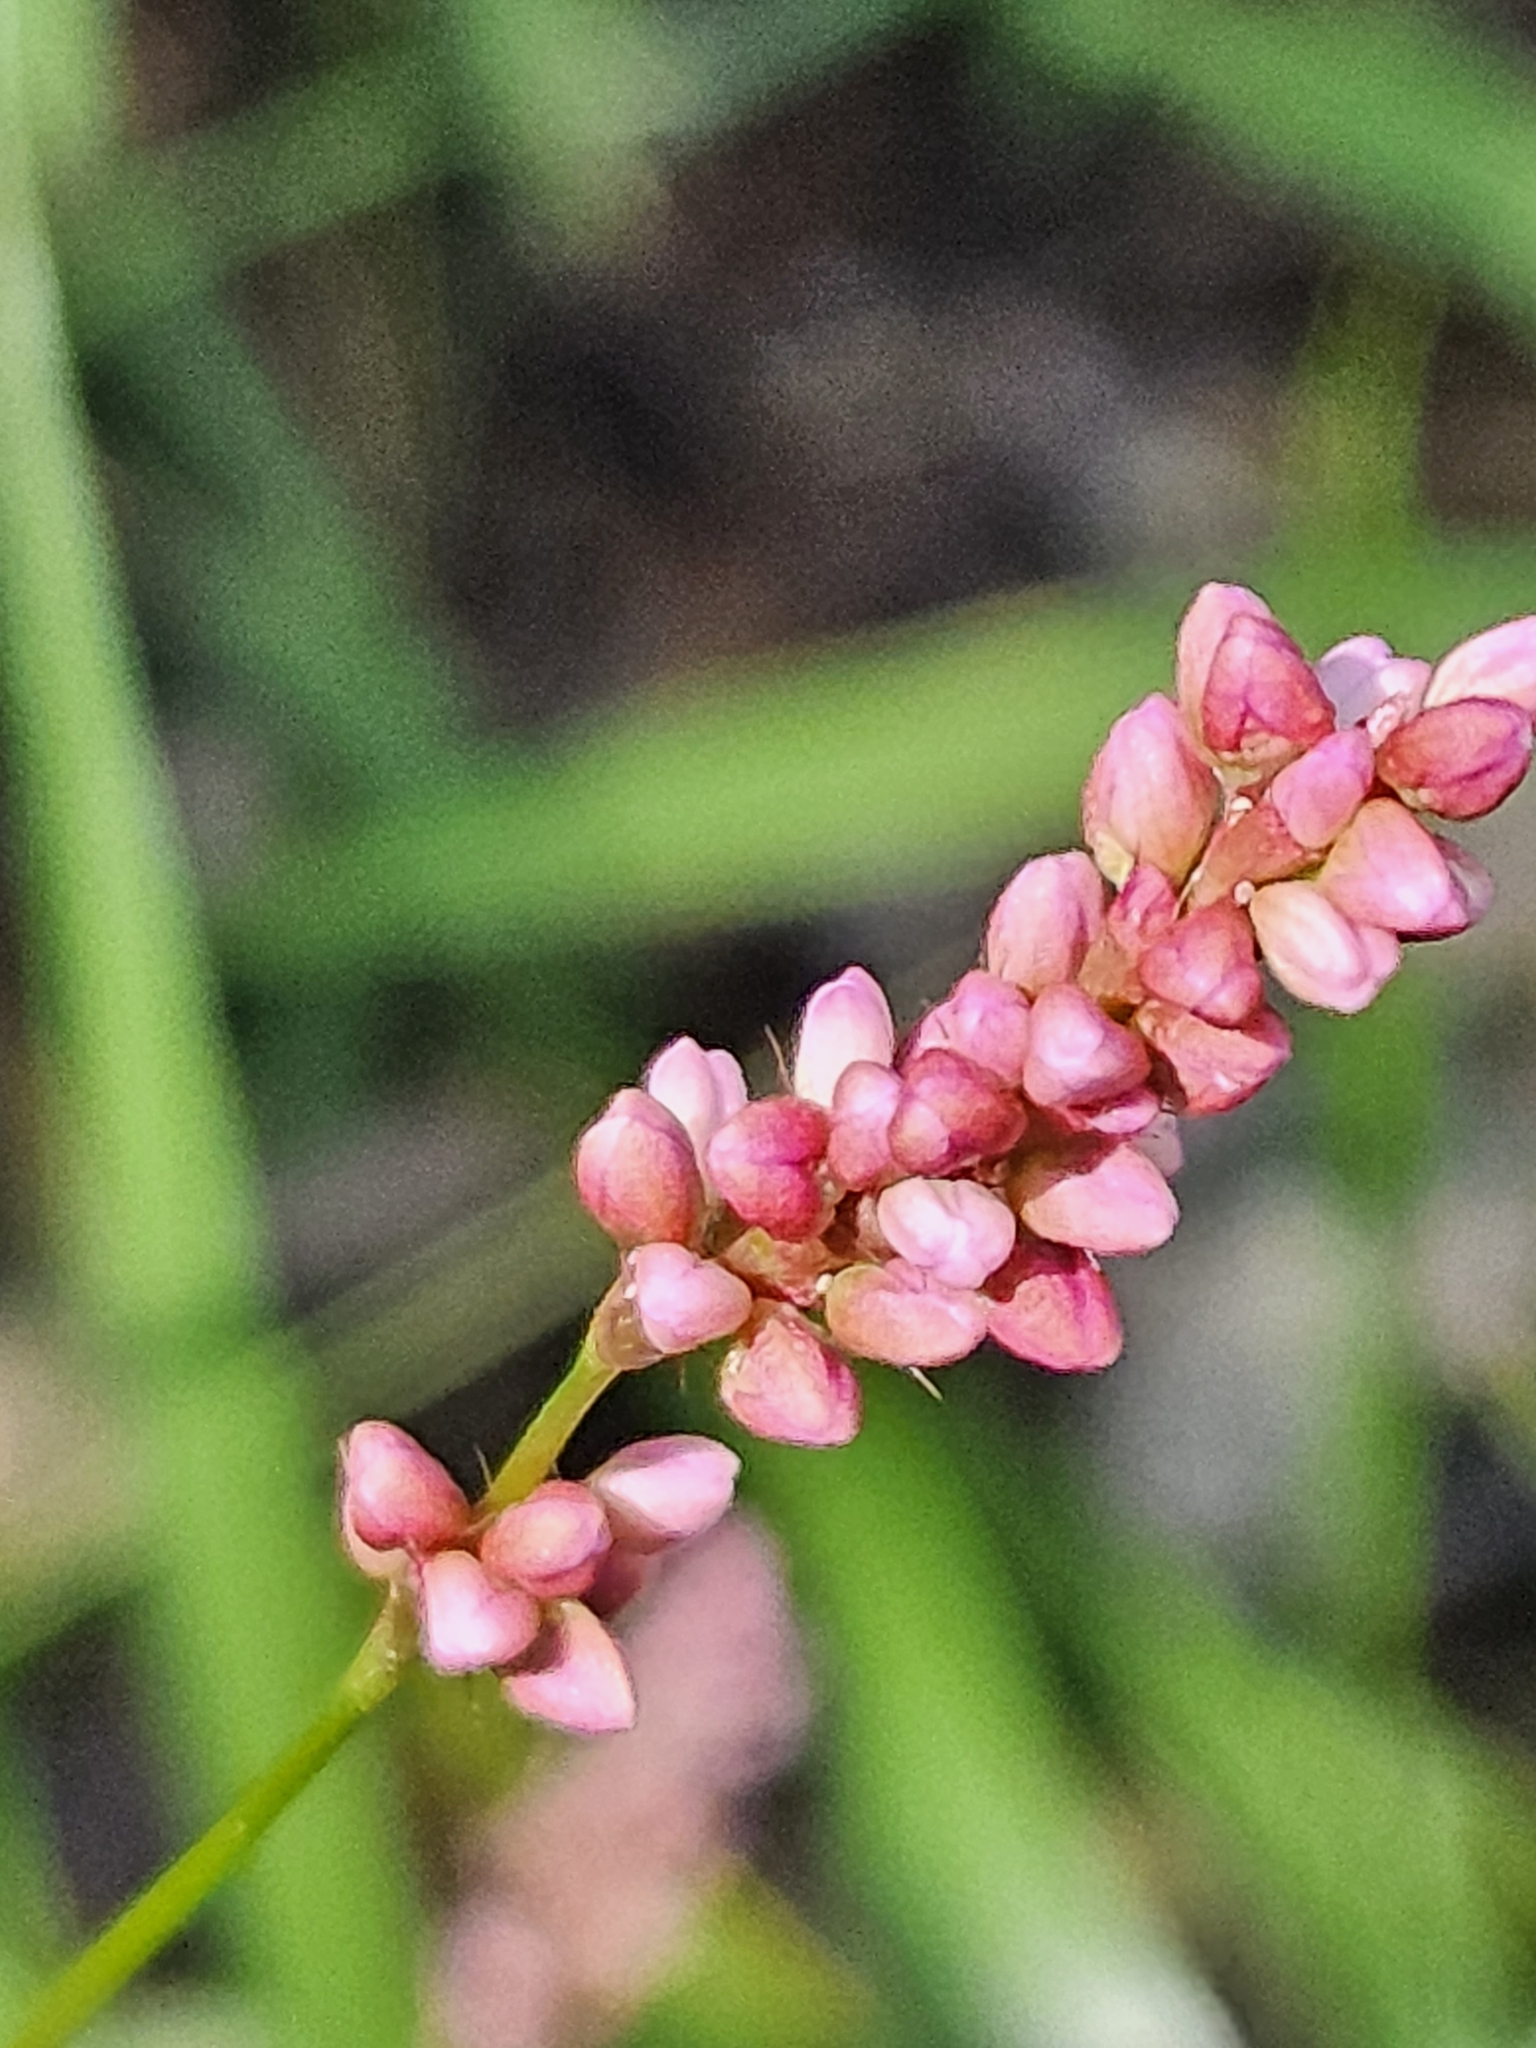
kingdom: Plantae
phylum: Tracheophyta
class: Magnoliopsida
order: Caryophyllales
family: Polygonaceae
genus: Persicaria
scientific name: Persicaria longiseta
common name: Bristly lady's-thumb
